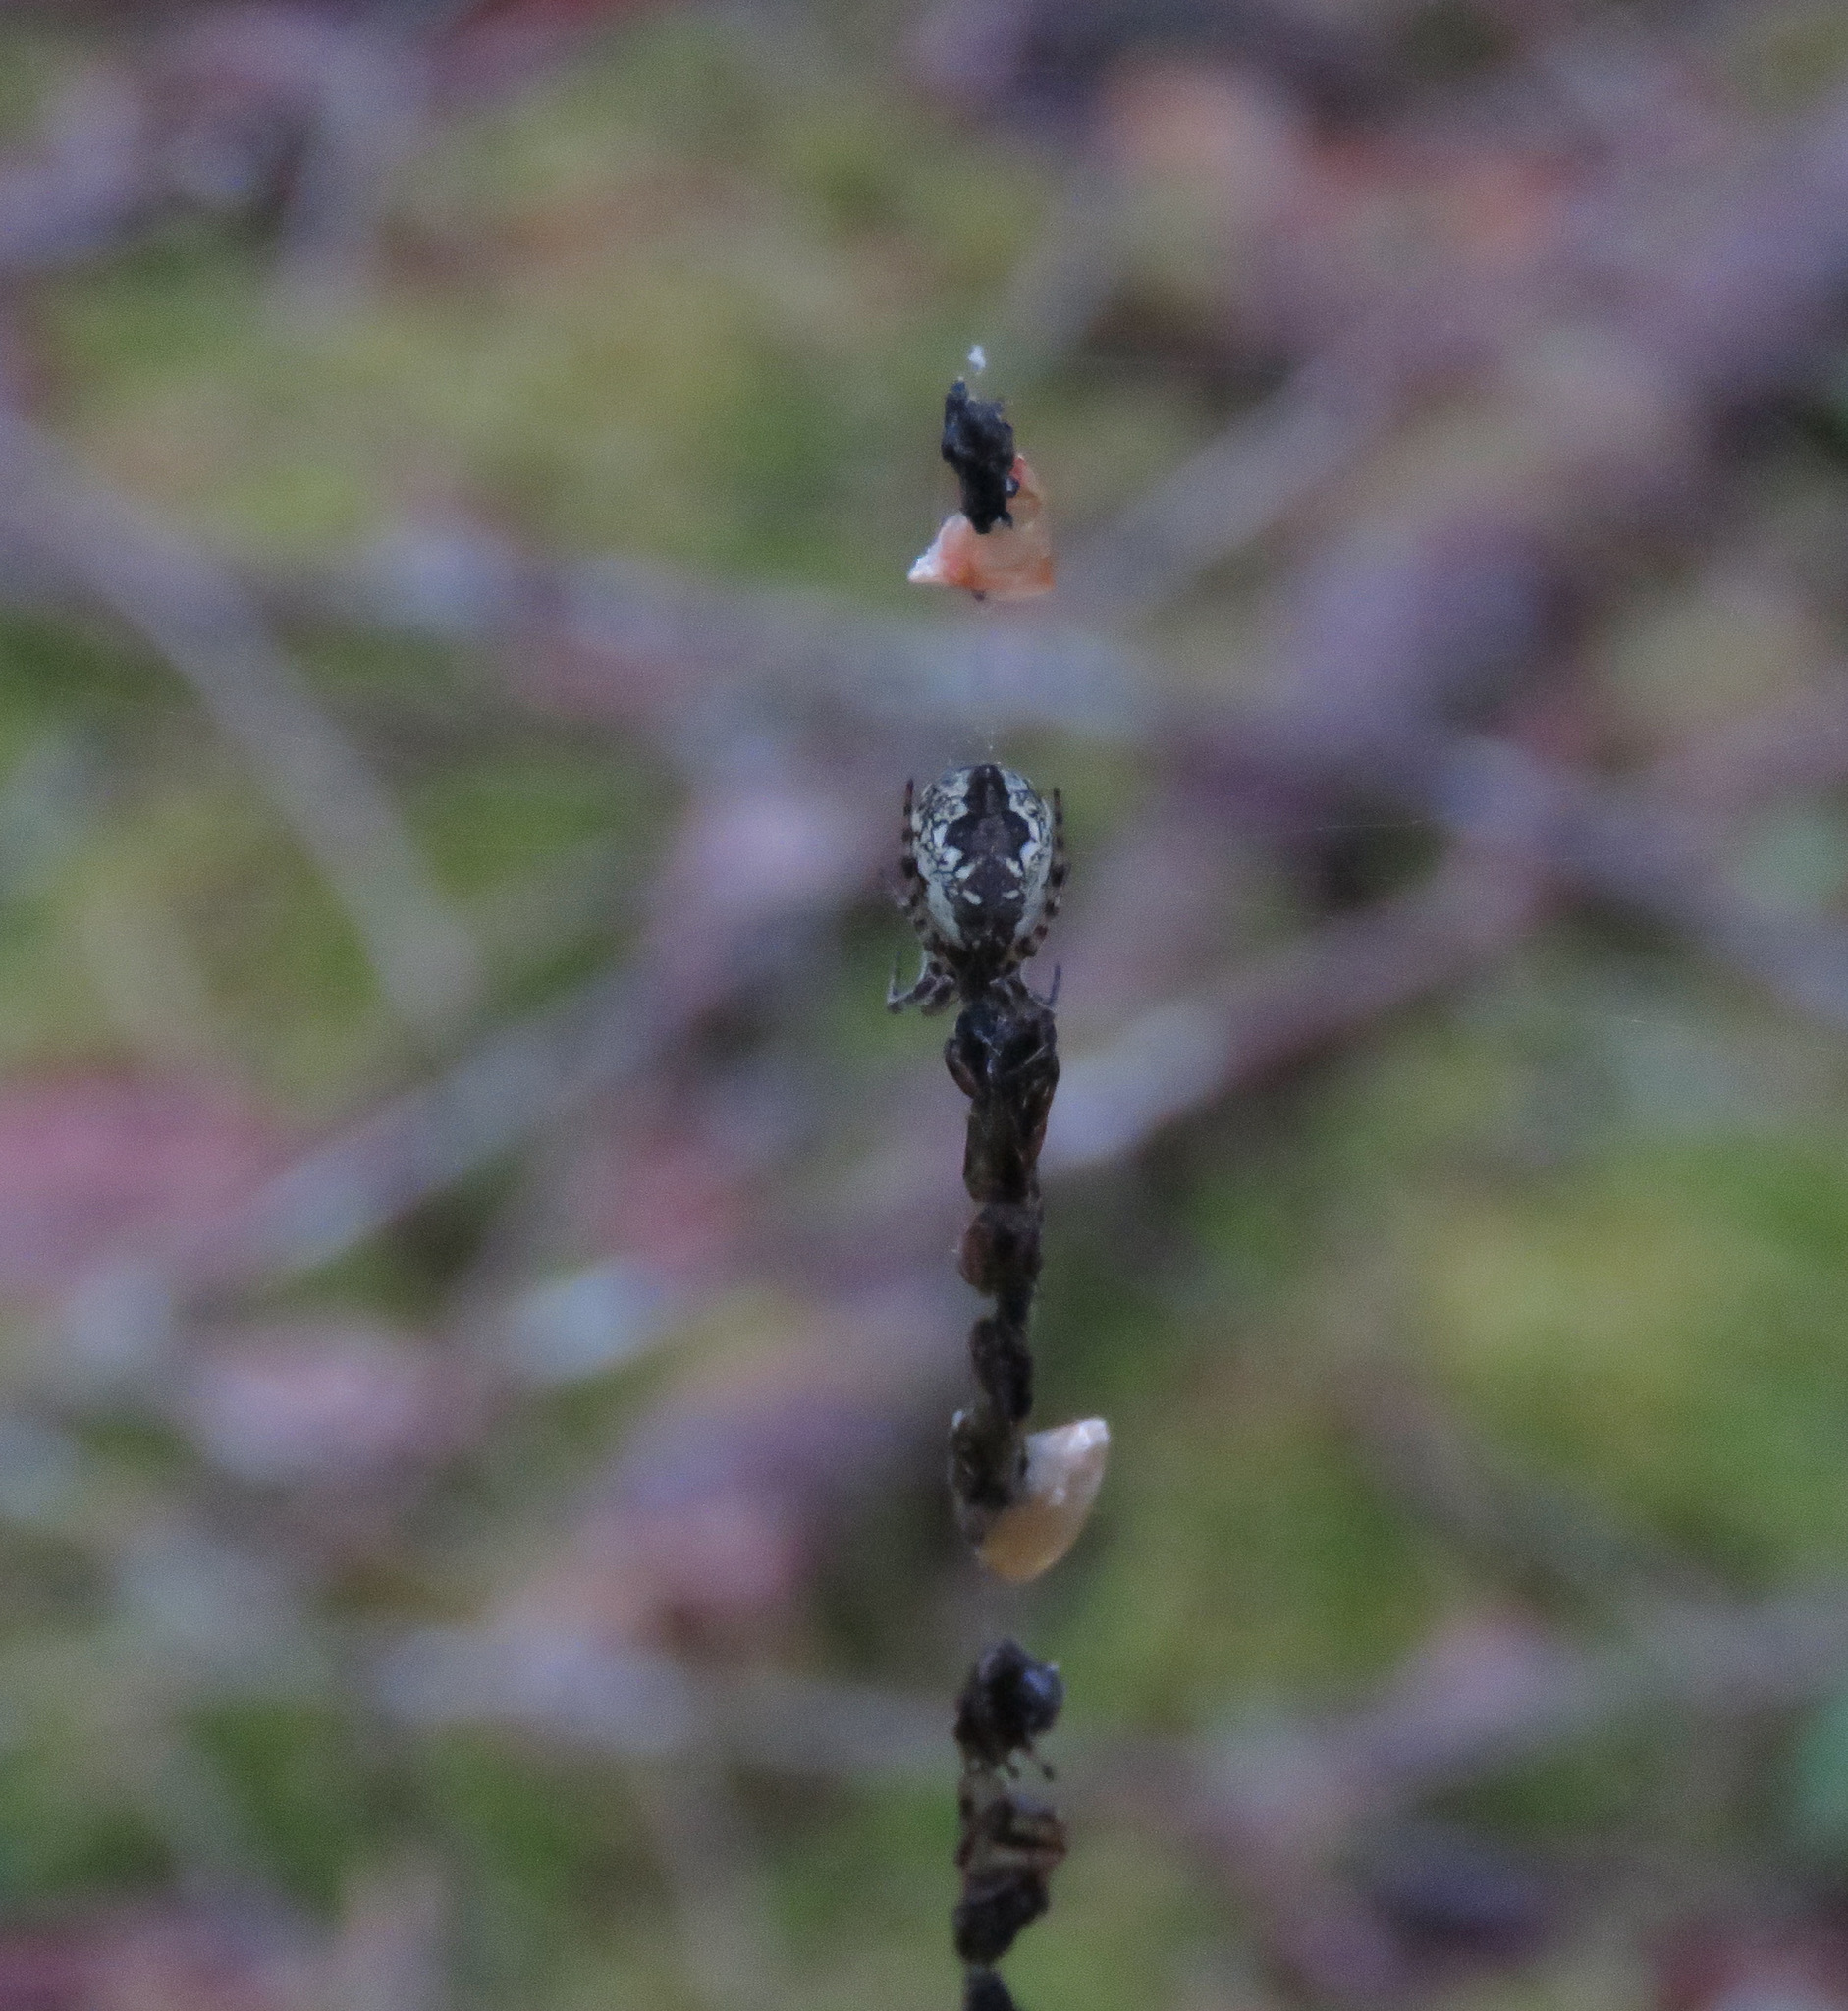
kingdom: Animalia
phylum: Arthropoda
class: Arachnida
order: Araneae
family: Araneidae
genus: Cyclosa
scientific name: Cyclosa conica
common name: Conical trashline orbweaver
